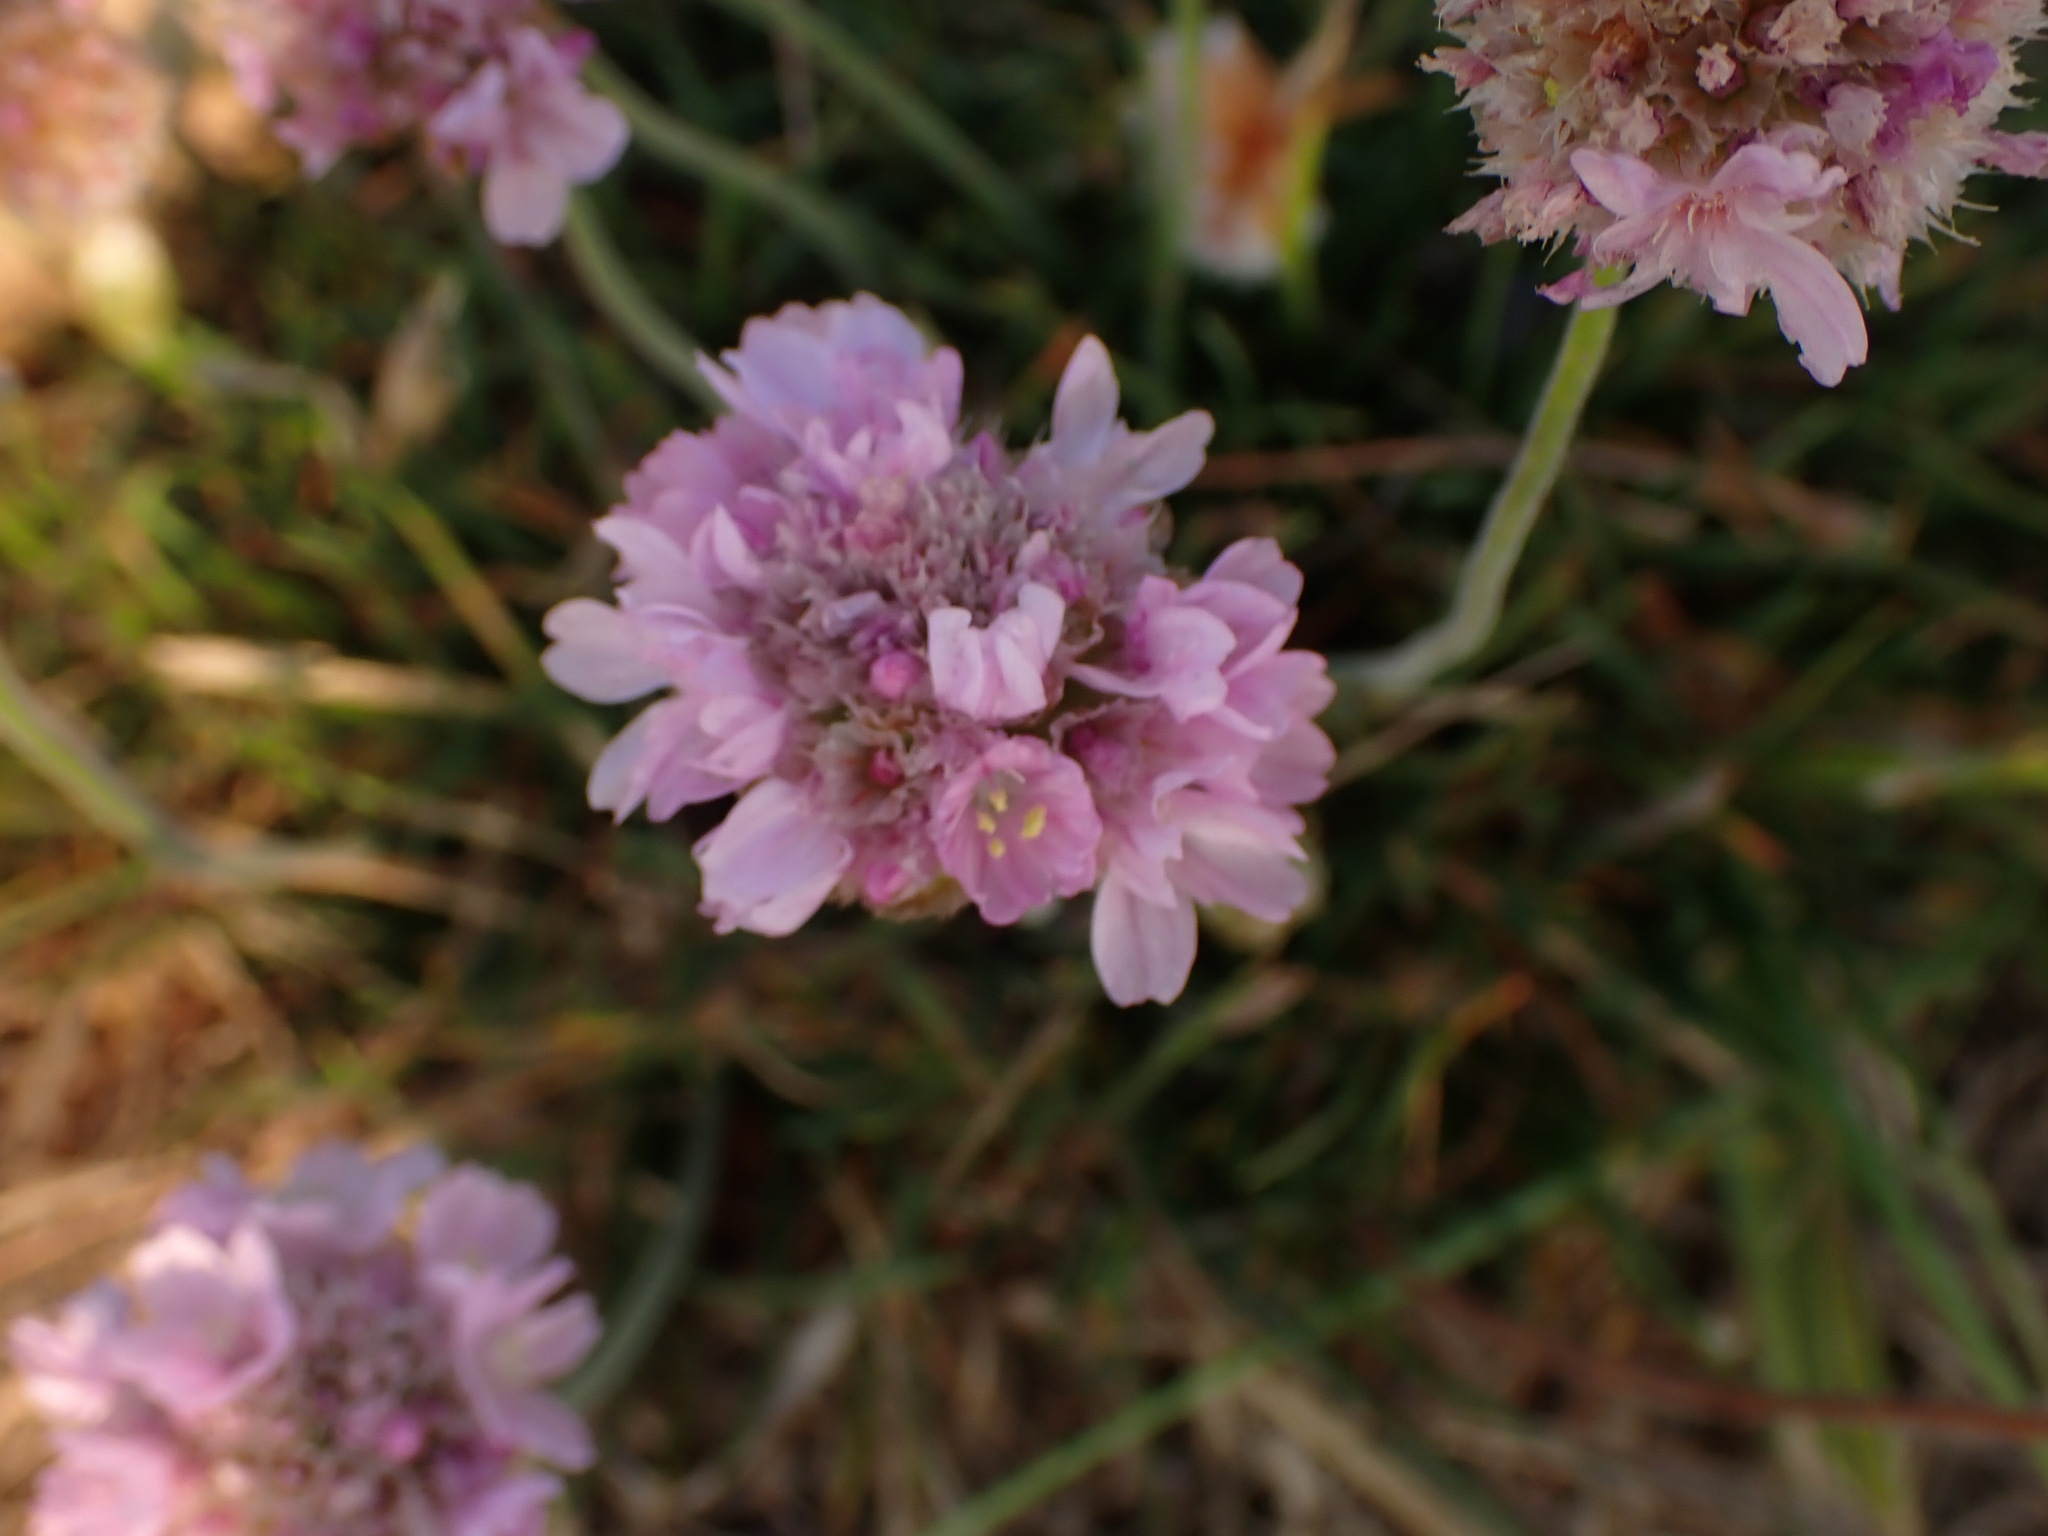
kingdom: Plantae
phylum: Tracheophyta
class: Magnoliopsida
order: Caryophyllales
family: Plumbaginaceae
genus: Armeria
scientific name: Armeria maritima
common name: Thrift
